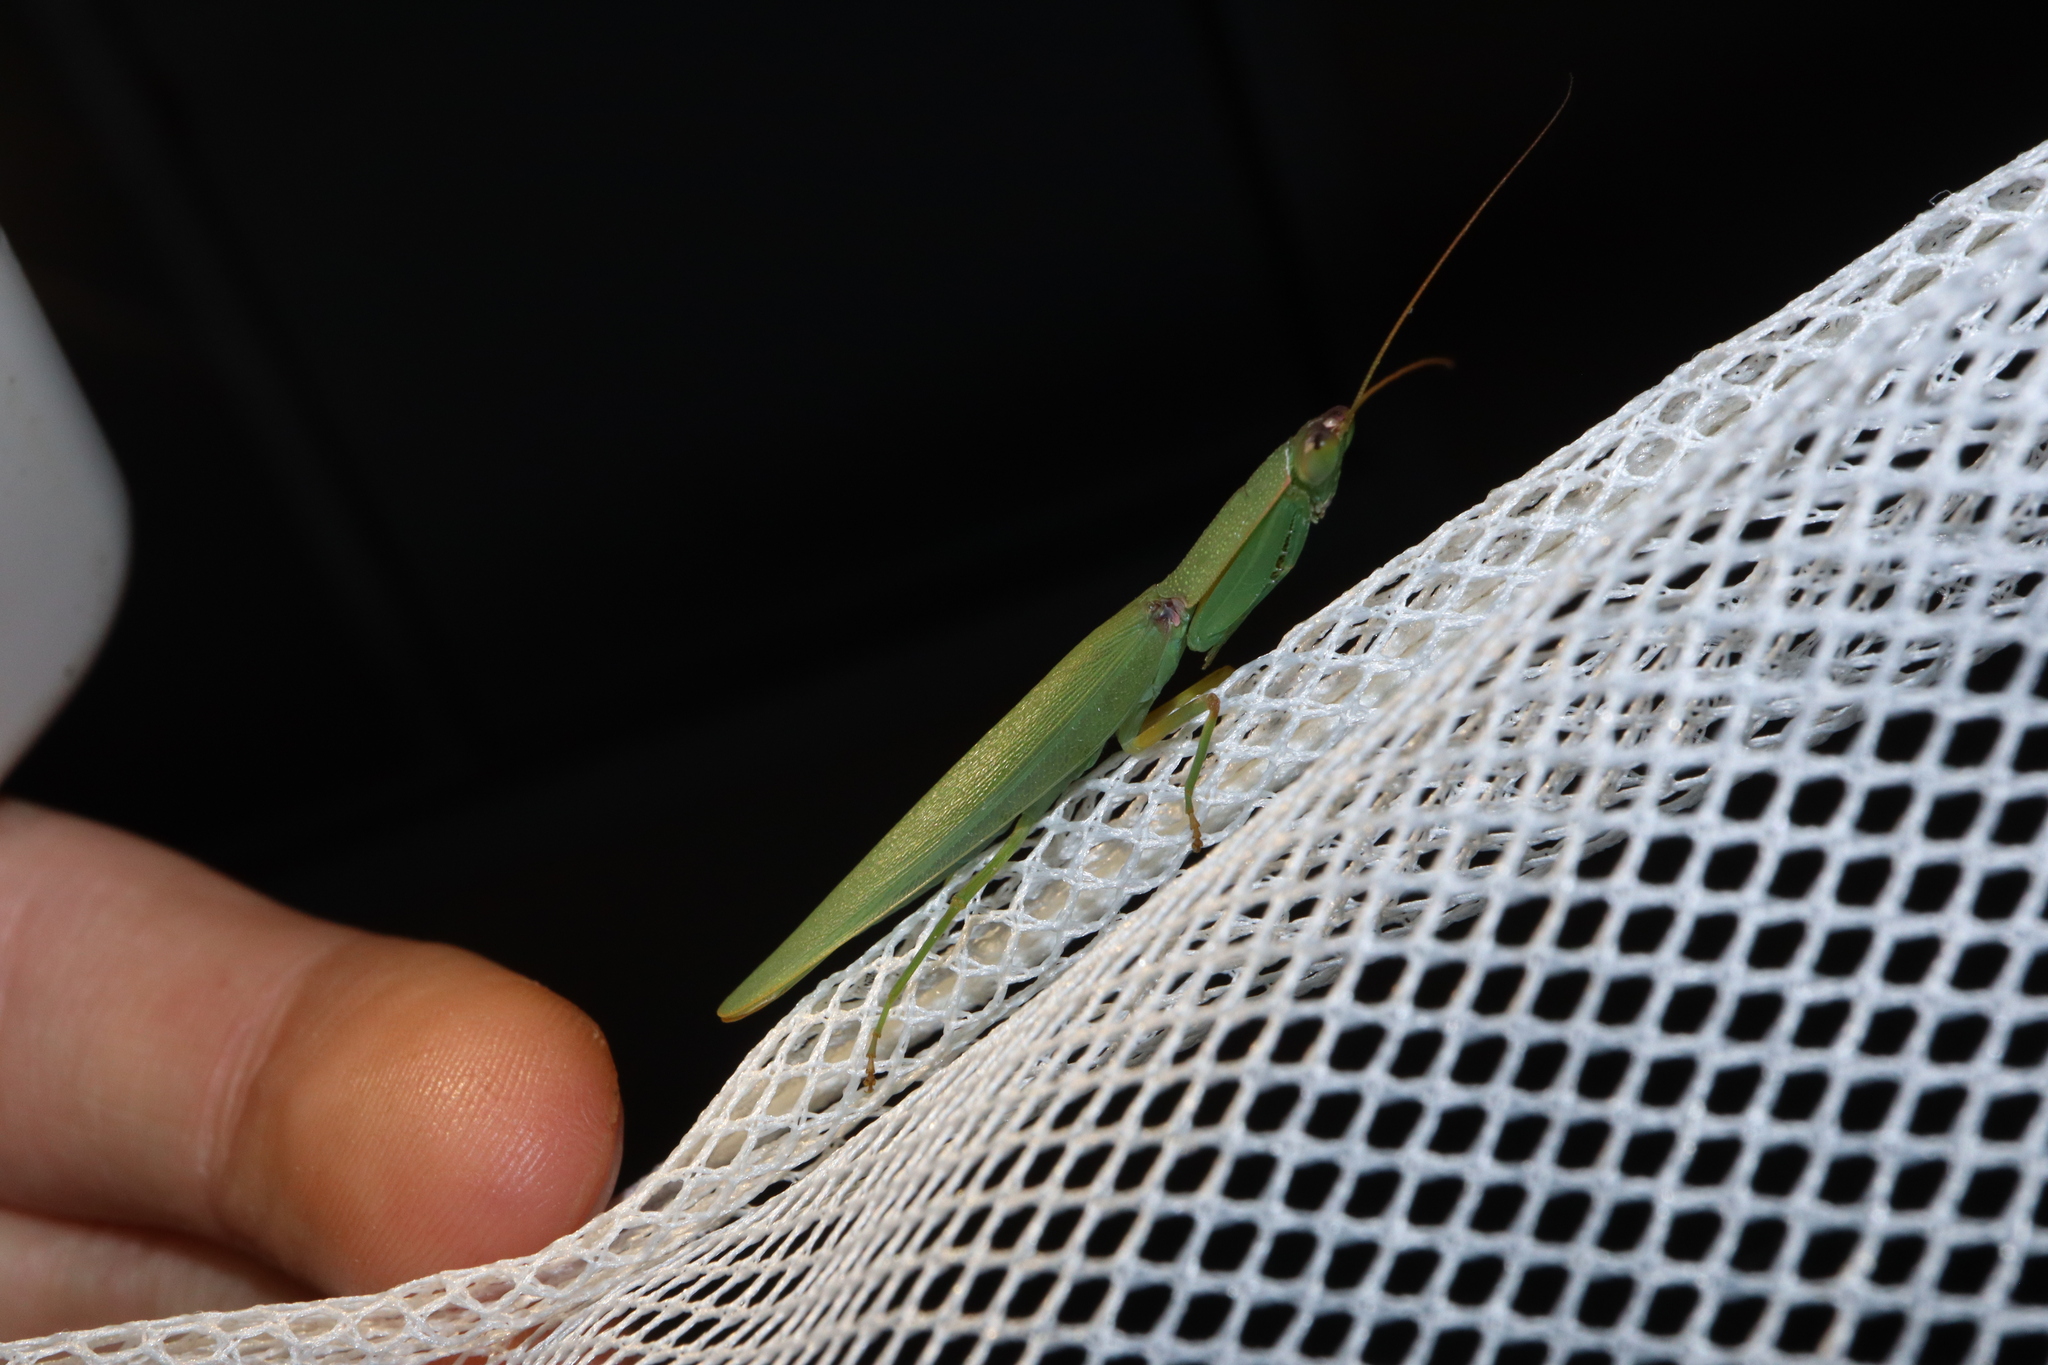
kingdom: Animalia
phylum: Arthropoda
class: Insecta
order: Mantodea
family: Mantidae
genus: Orthodera
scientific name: Orthodera ministralis
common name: Mantis
